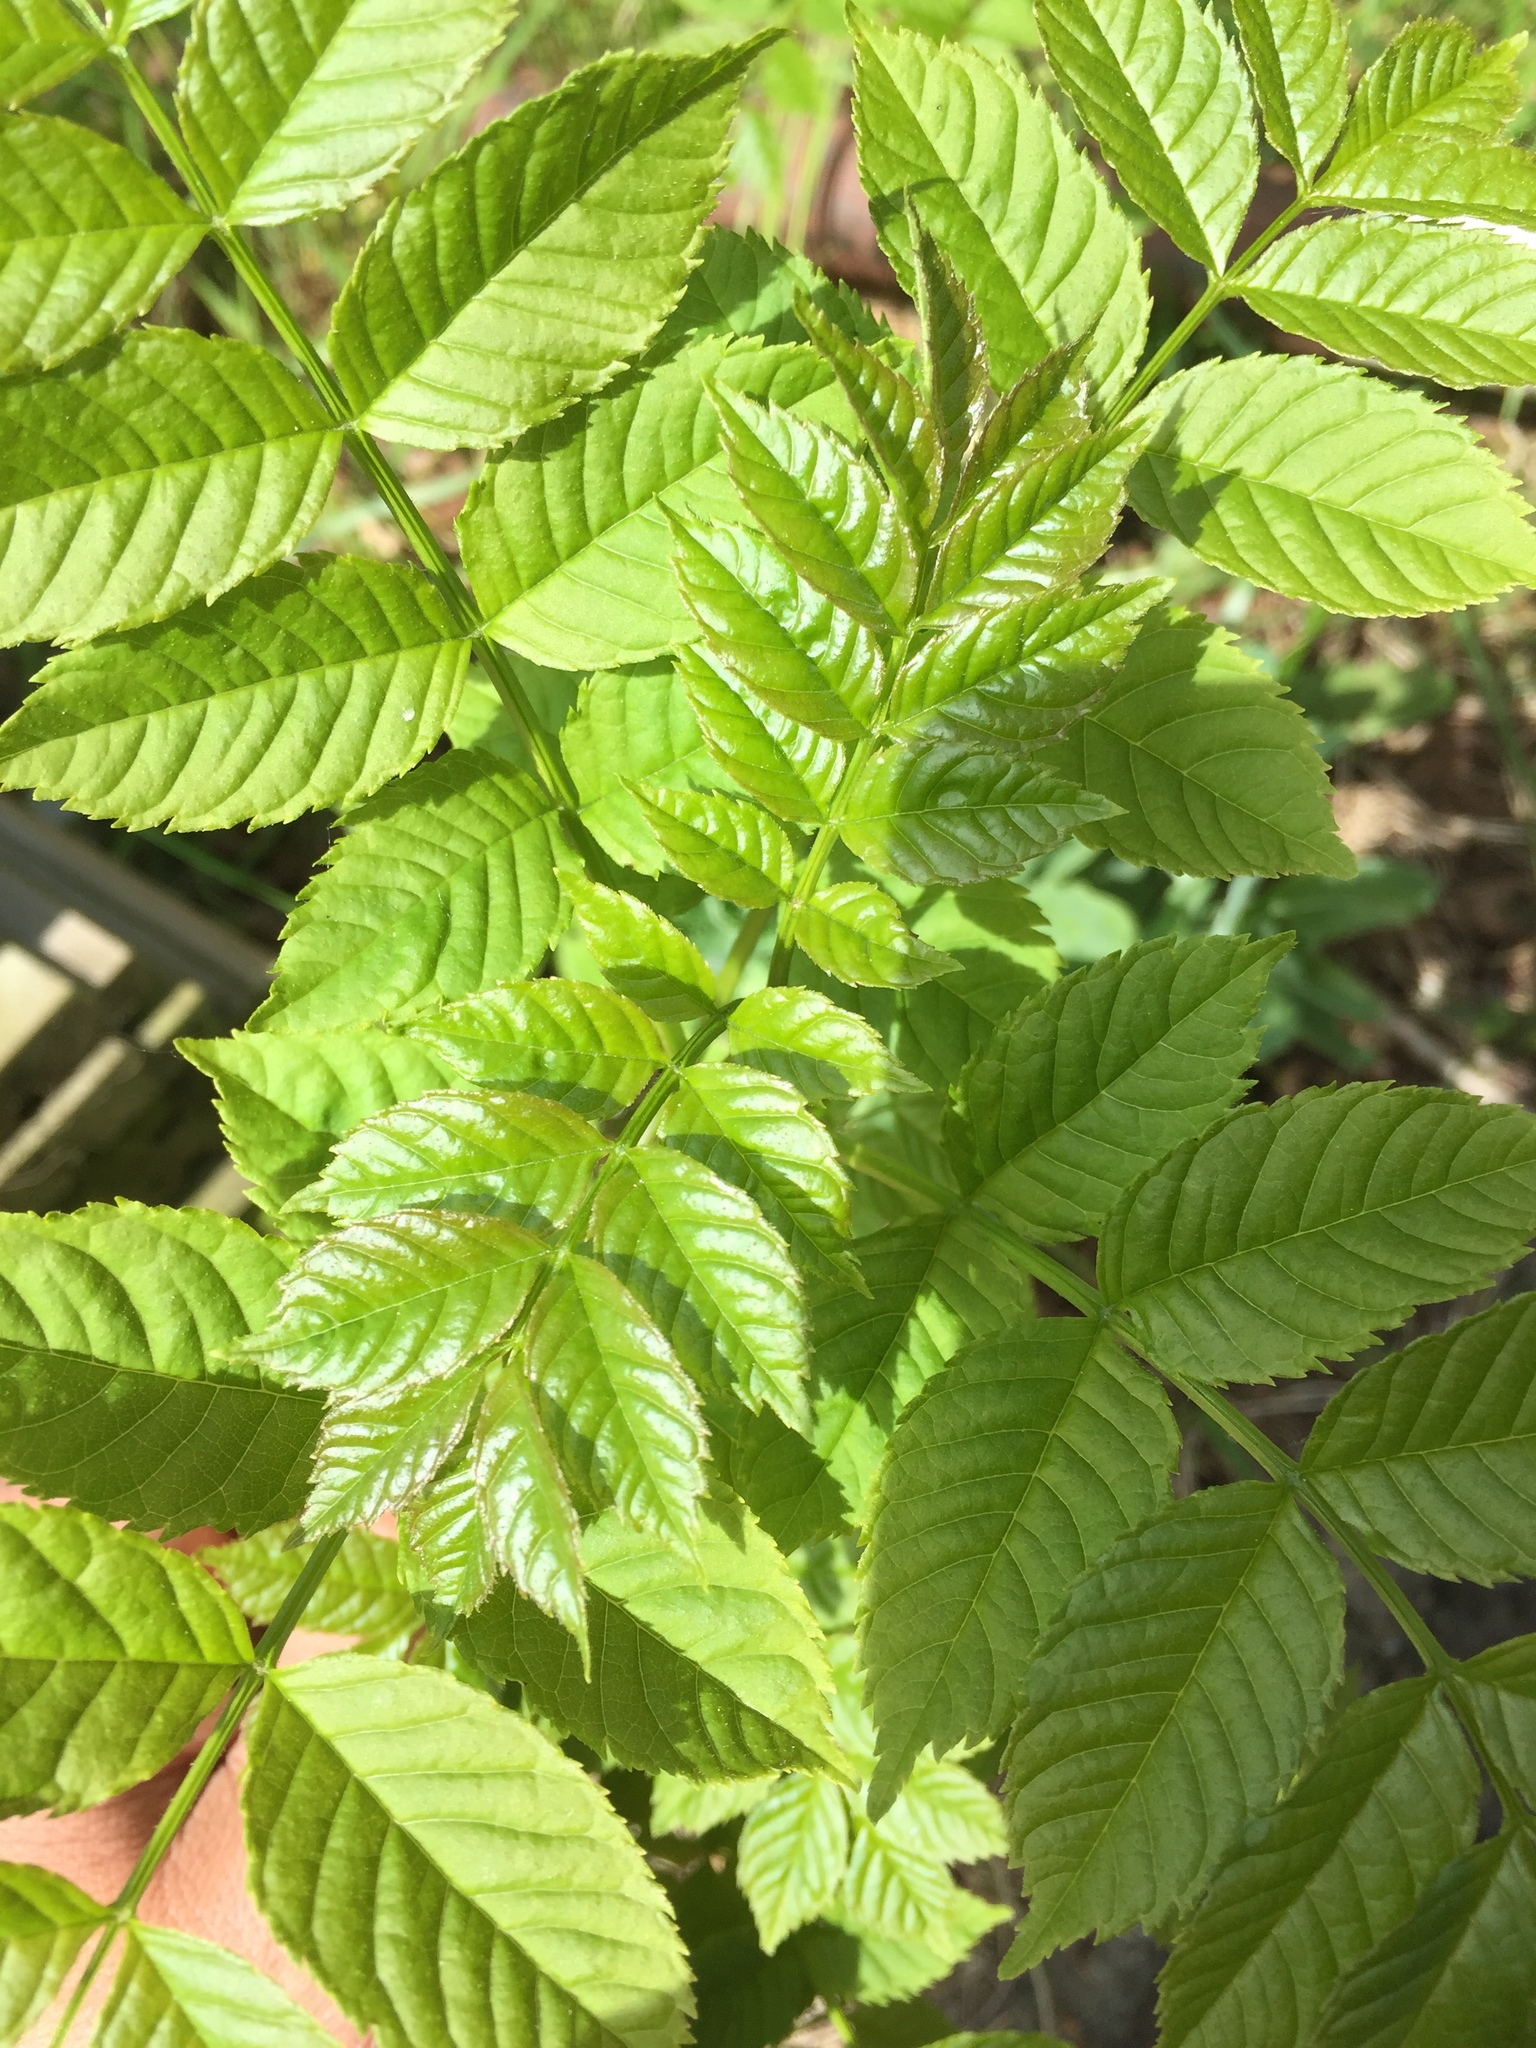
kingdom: Plantae
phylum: Tracheophyta
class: Magnoliopsida
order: Lamiales
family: Oleaceae
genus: Fraxinus
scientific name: Fraxinus excelsior
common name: European ash
